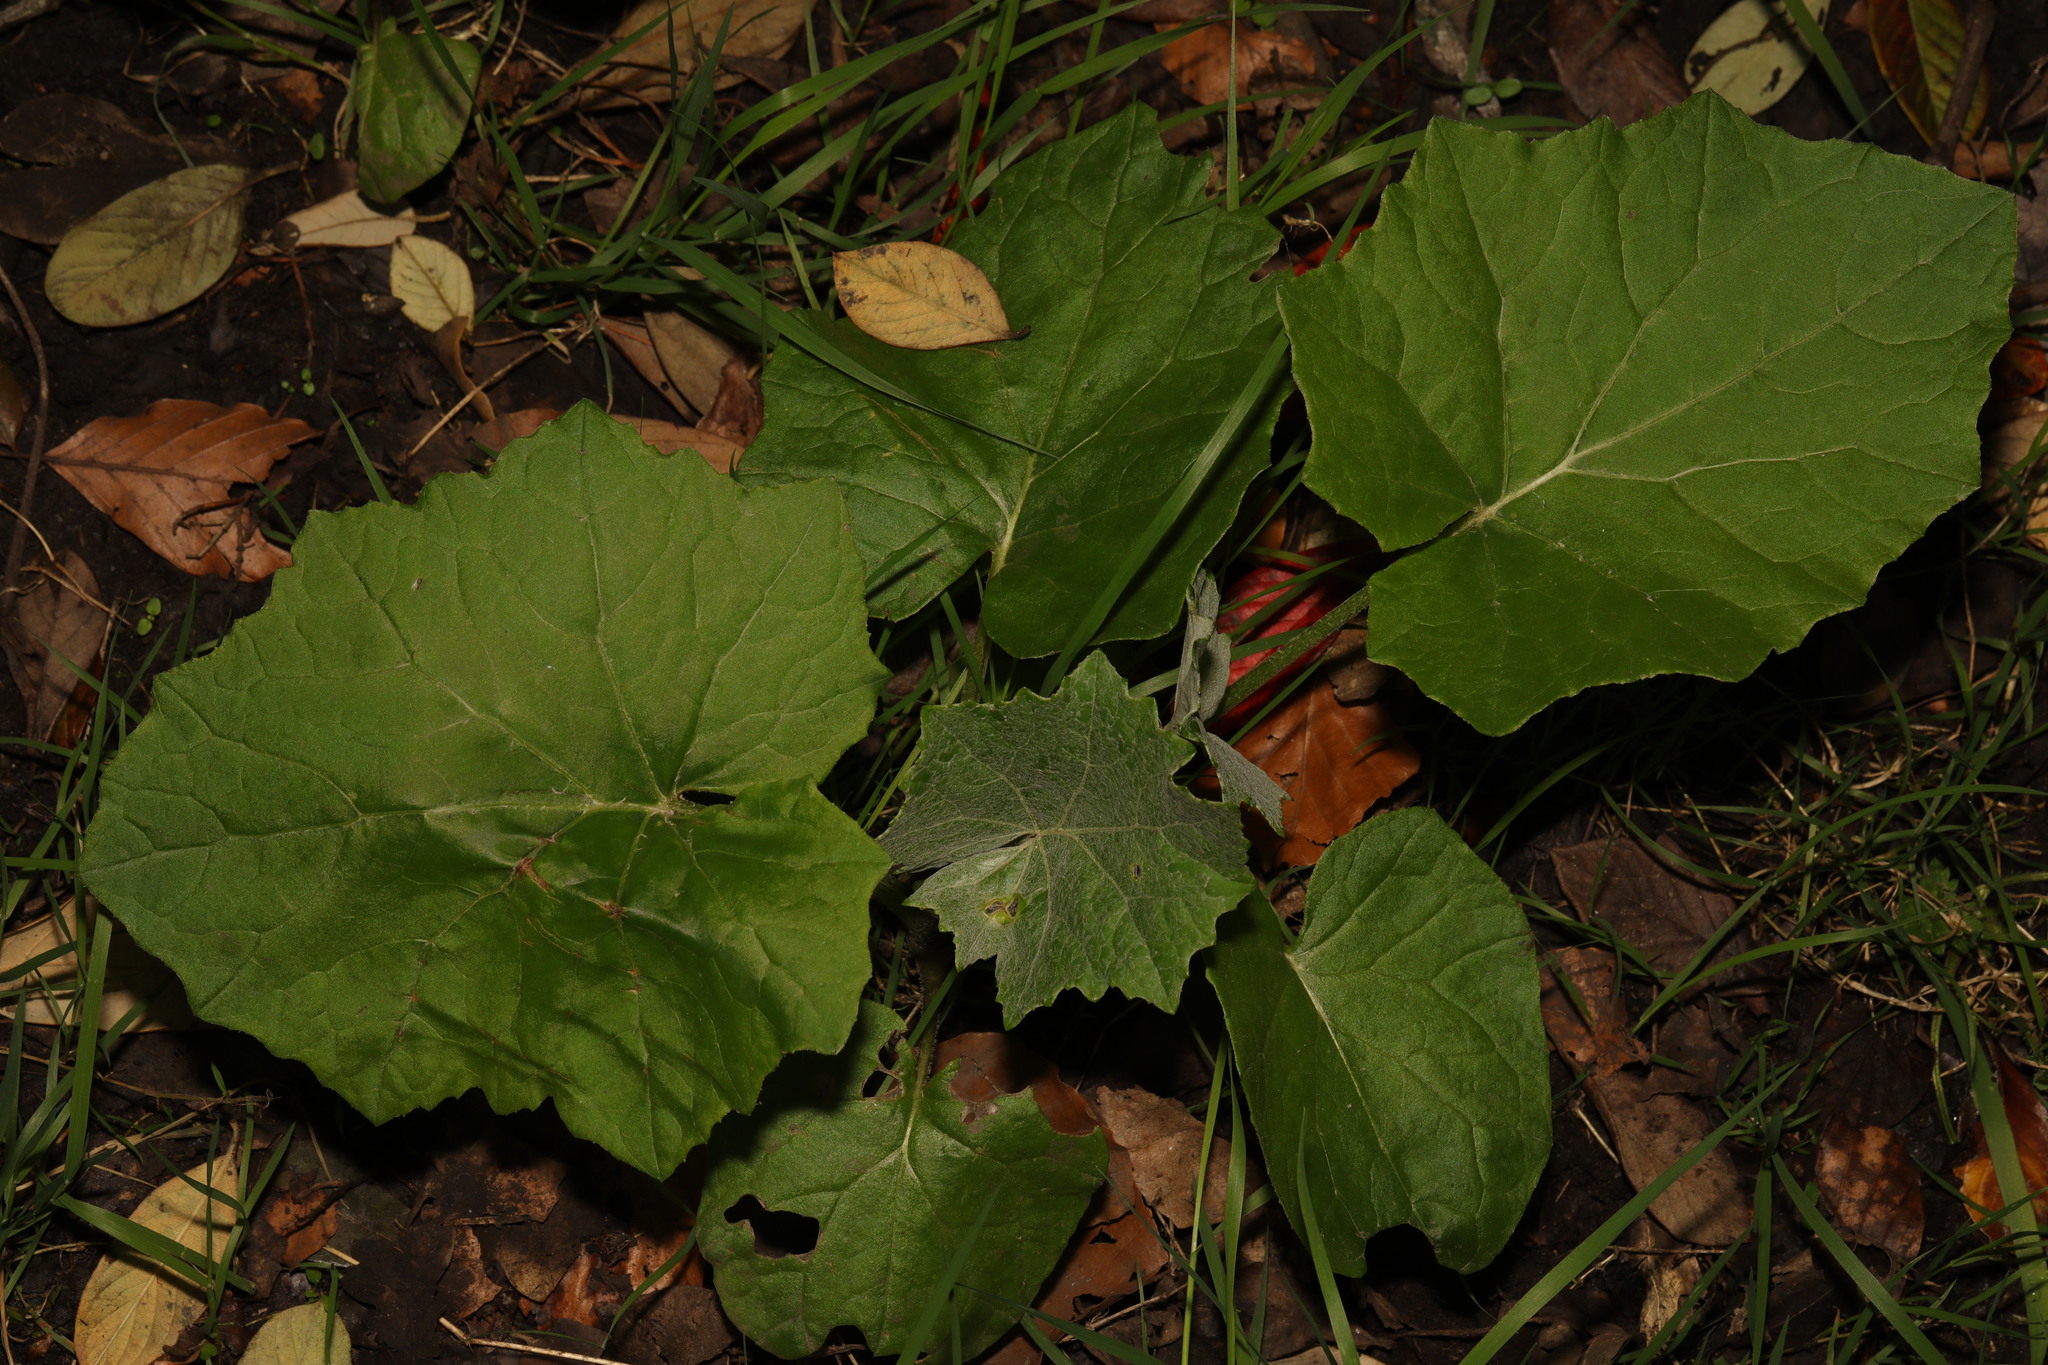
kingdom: Plantae
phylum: Tracheophyta
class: Magnoliopsida
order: Asterales
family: Asteraceae
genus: Tussilago
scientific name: Tussilago farfara
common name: Coltsfoot
